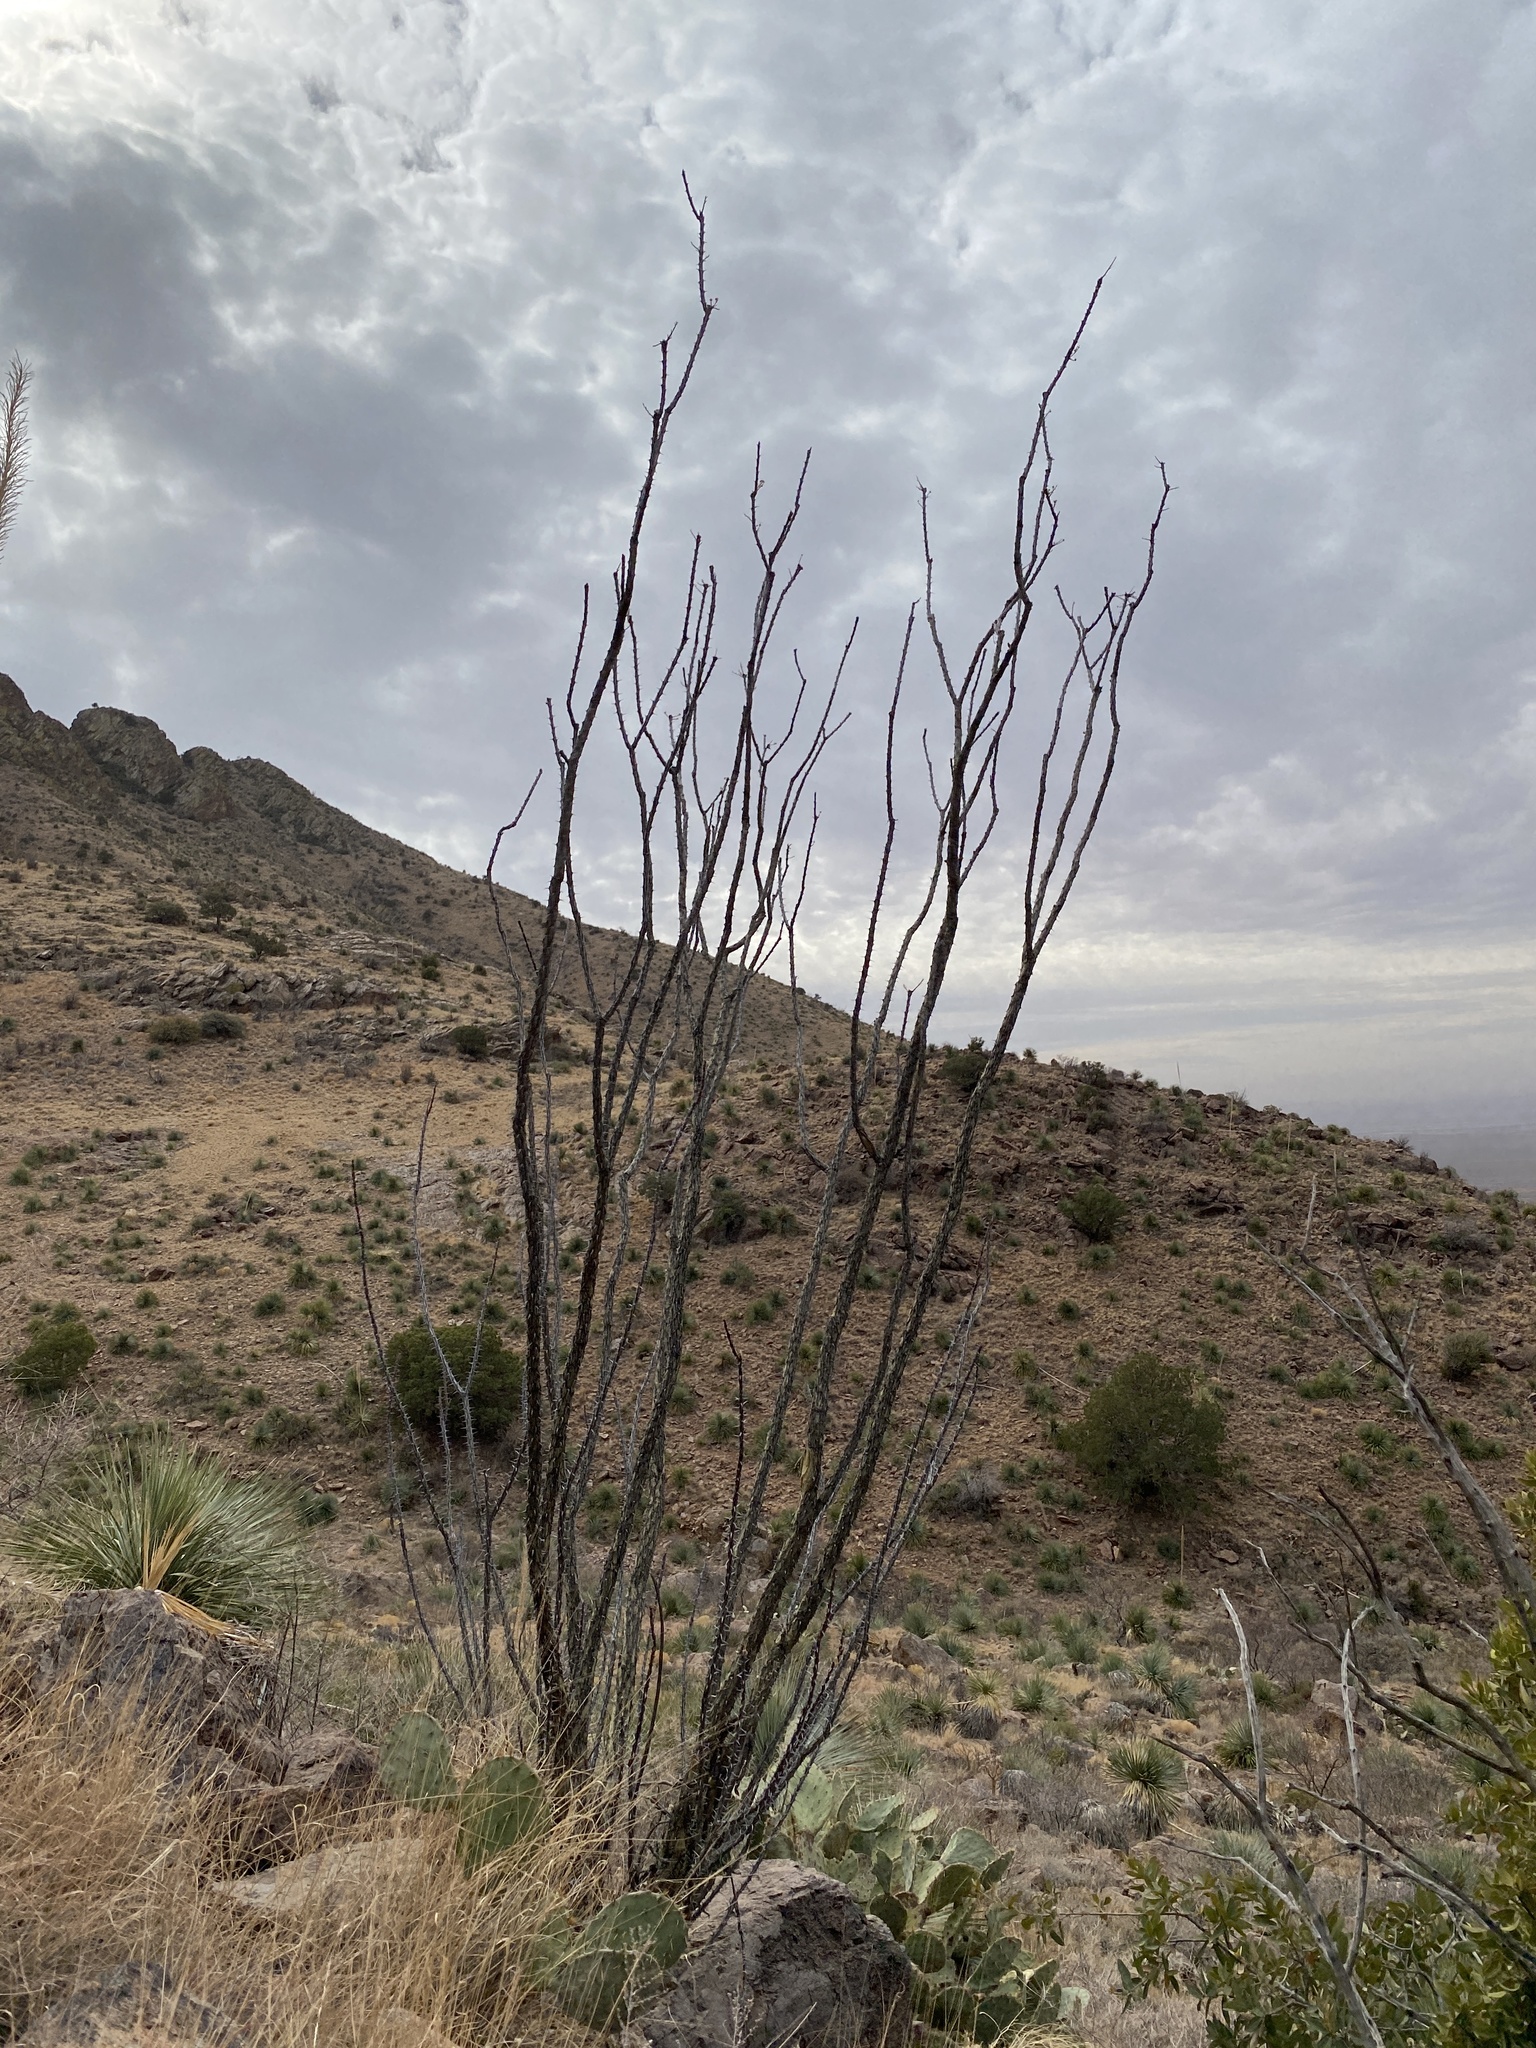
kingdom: Plantae
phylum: Tracheophyta
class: Magnoliopsida
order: Ericales
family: Fouquieriaceae
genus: Fouquieria
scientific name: Fouquieria splendens
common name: Vine-cactus
